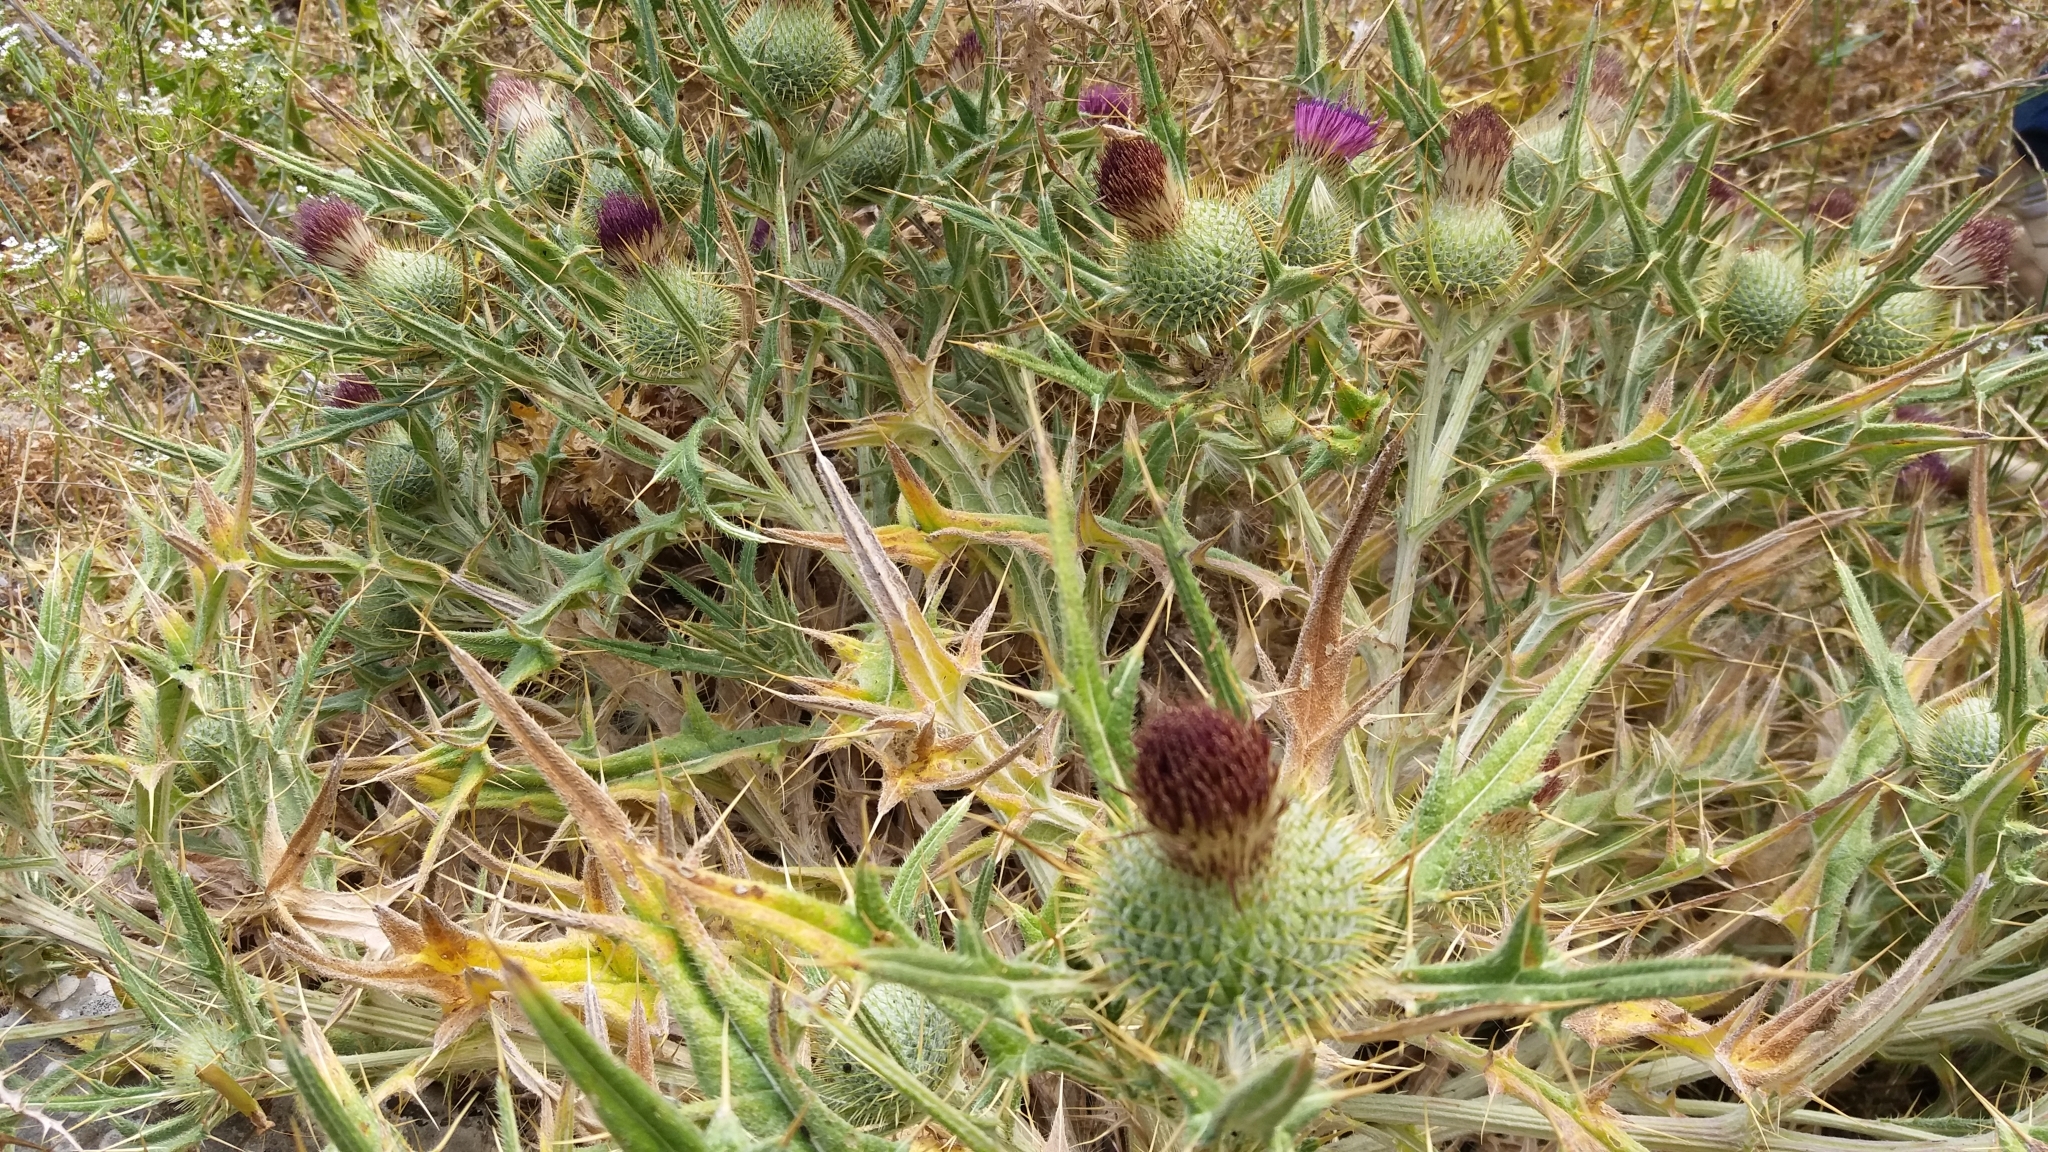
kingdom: Plantae
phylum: Tracheophyta
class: Magnoliopsida
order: Asterales
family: Asteraceae
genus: Lophiolepis
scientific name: Lophiolepis echinata
